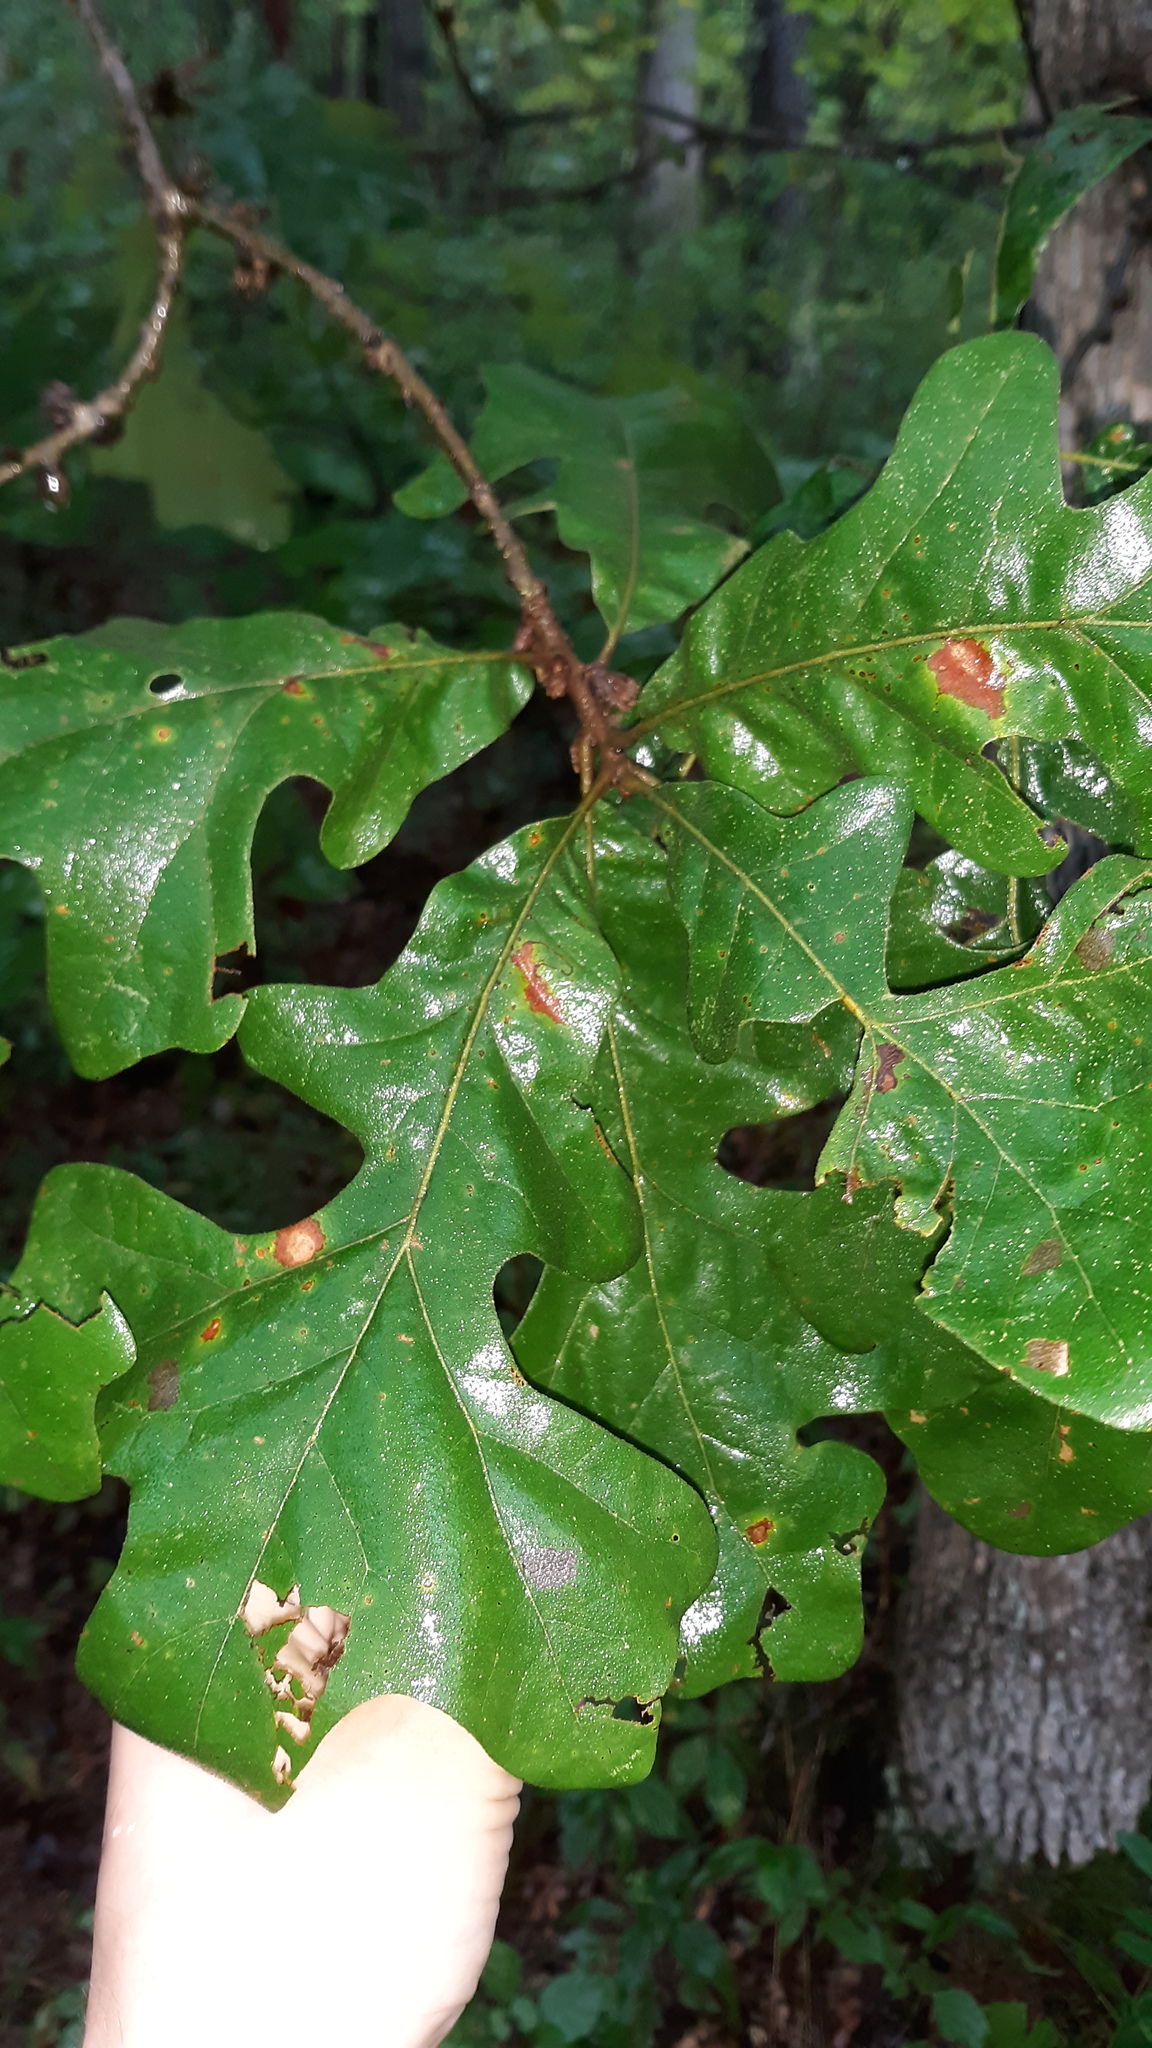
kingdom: Plantae
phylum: Tracheophyta
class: Magnoliopsida
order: Fagales
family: Fagaceae
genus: Quercus
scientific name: Quercus stellata
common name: Post oak
